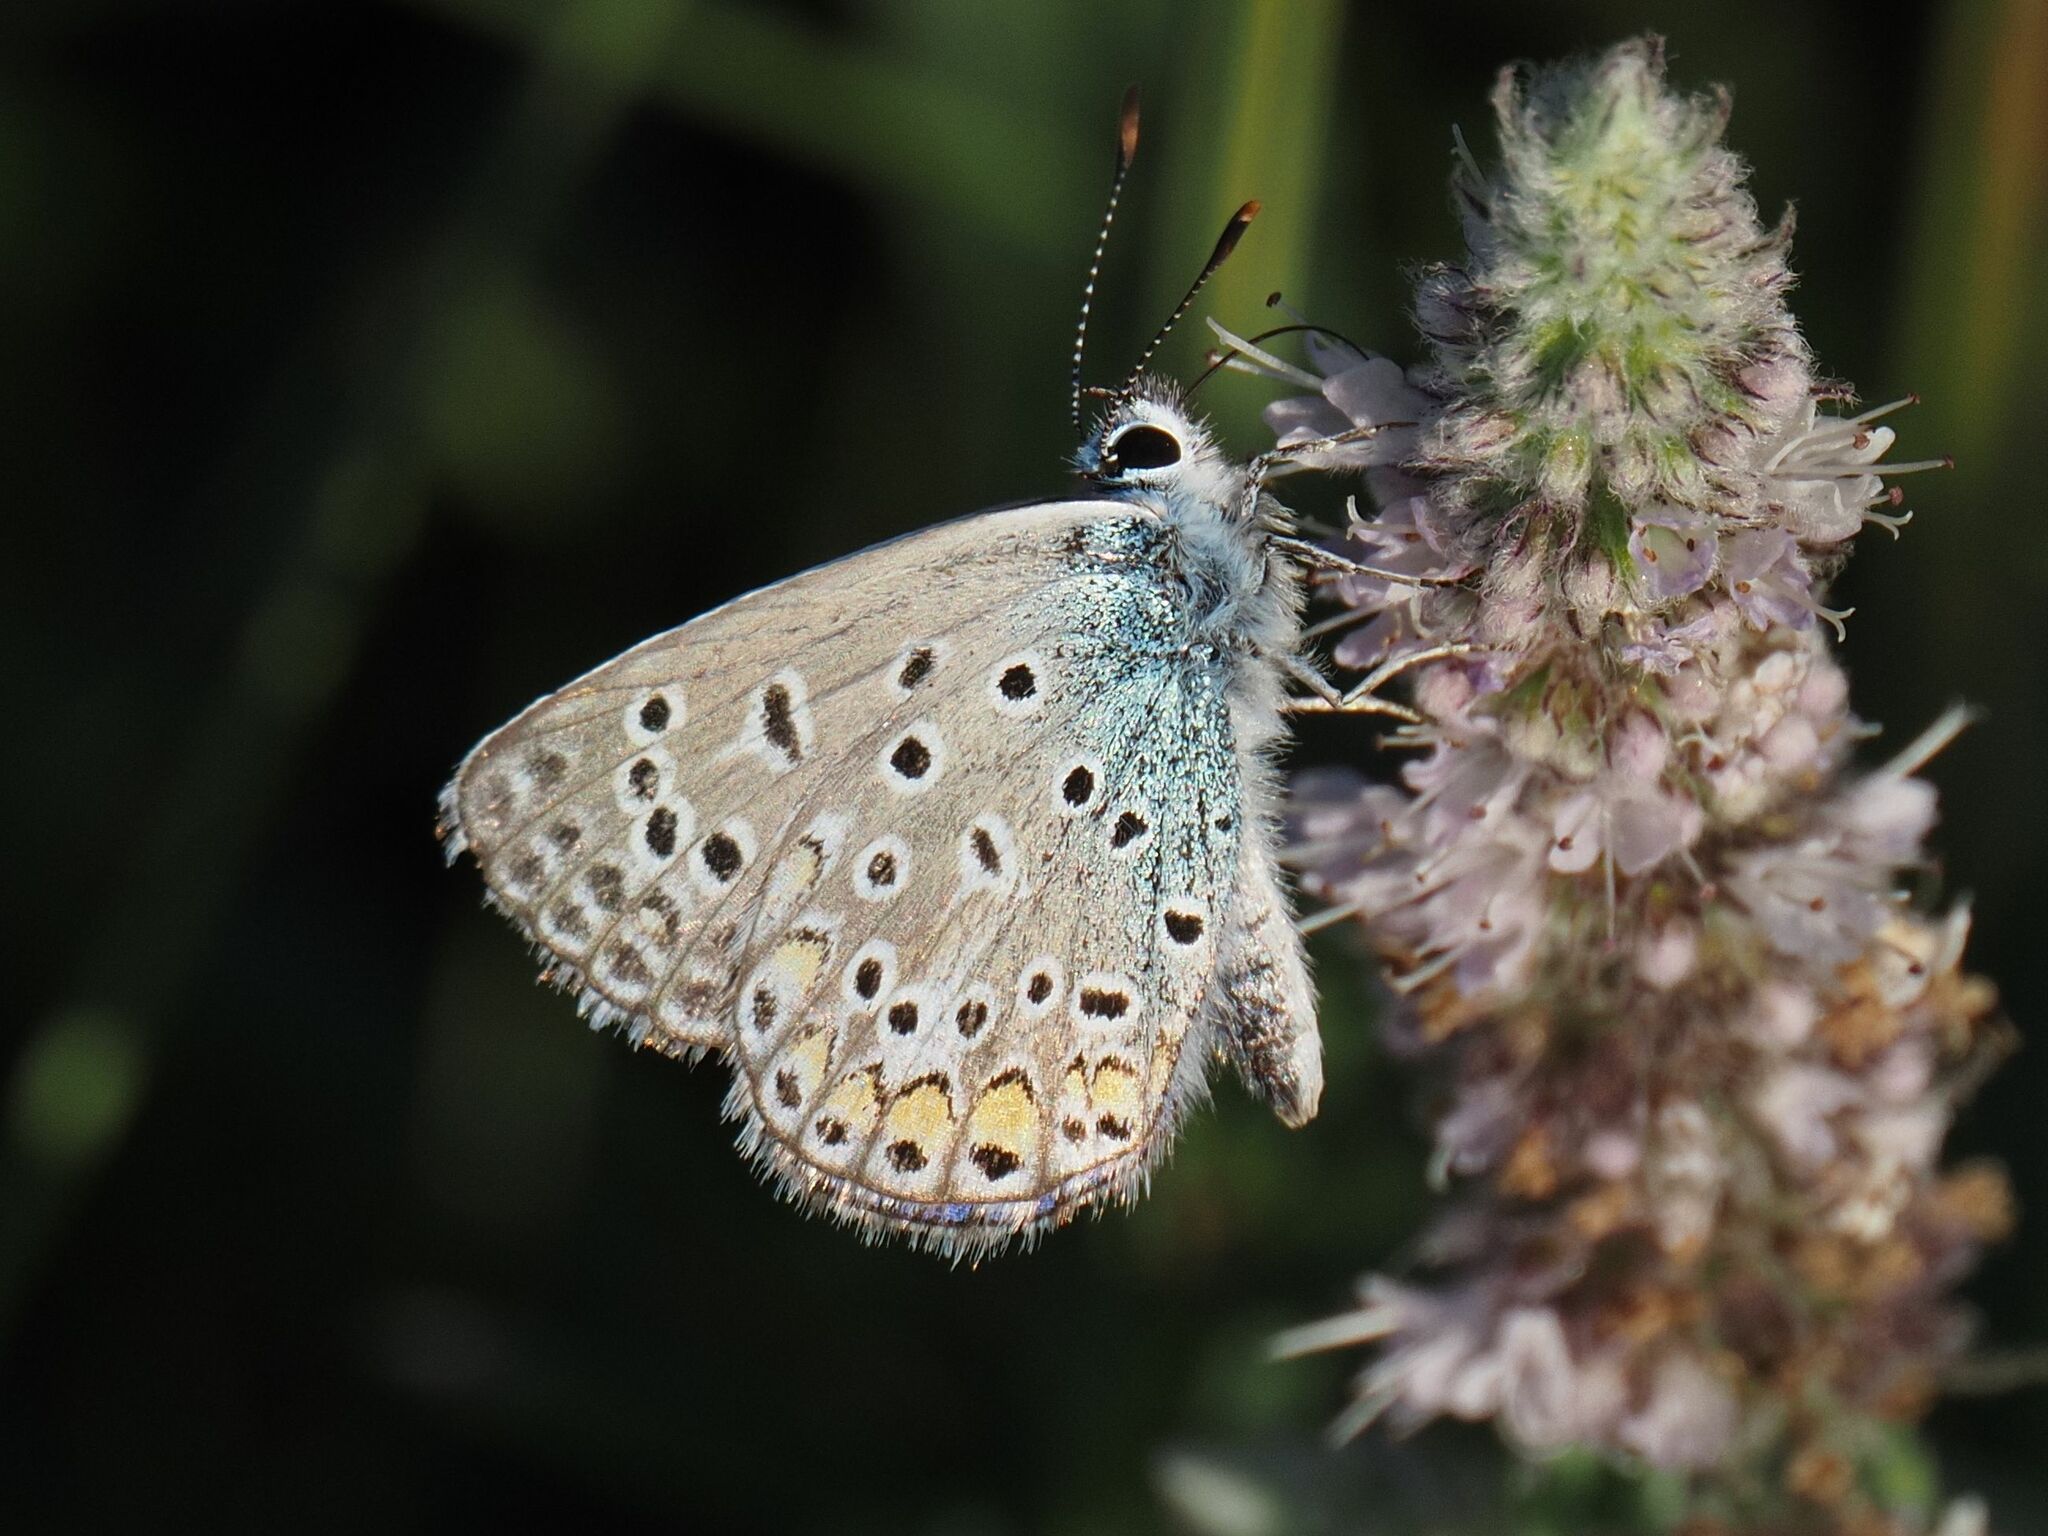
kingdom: Animalia
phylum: Arthropoda
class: Insecta
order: Lepidoptera
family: Lycaenidae
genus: Polyommatus
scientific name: Polyommatus icarus
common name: Common blue
